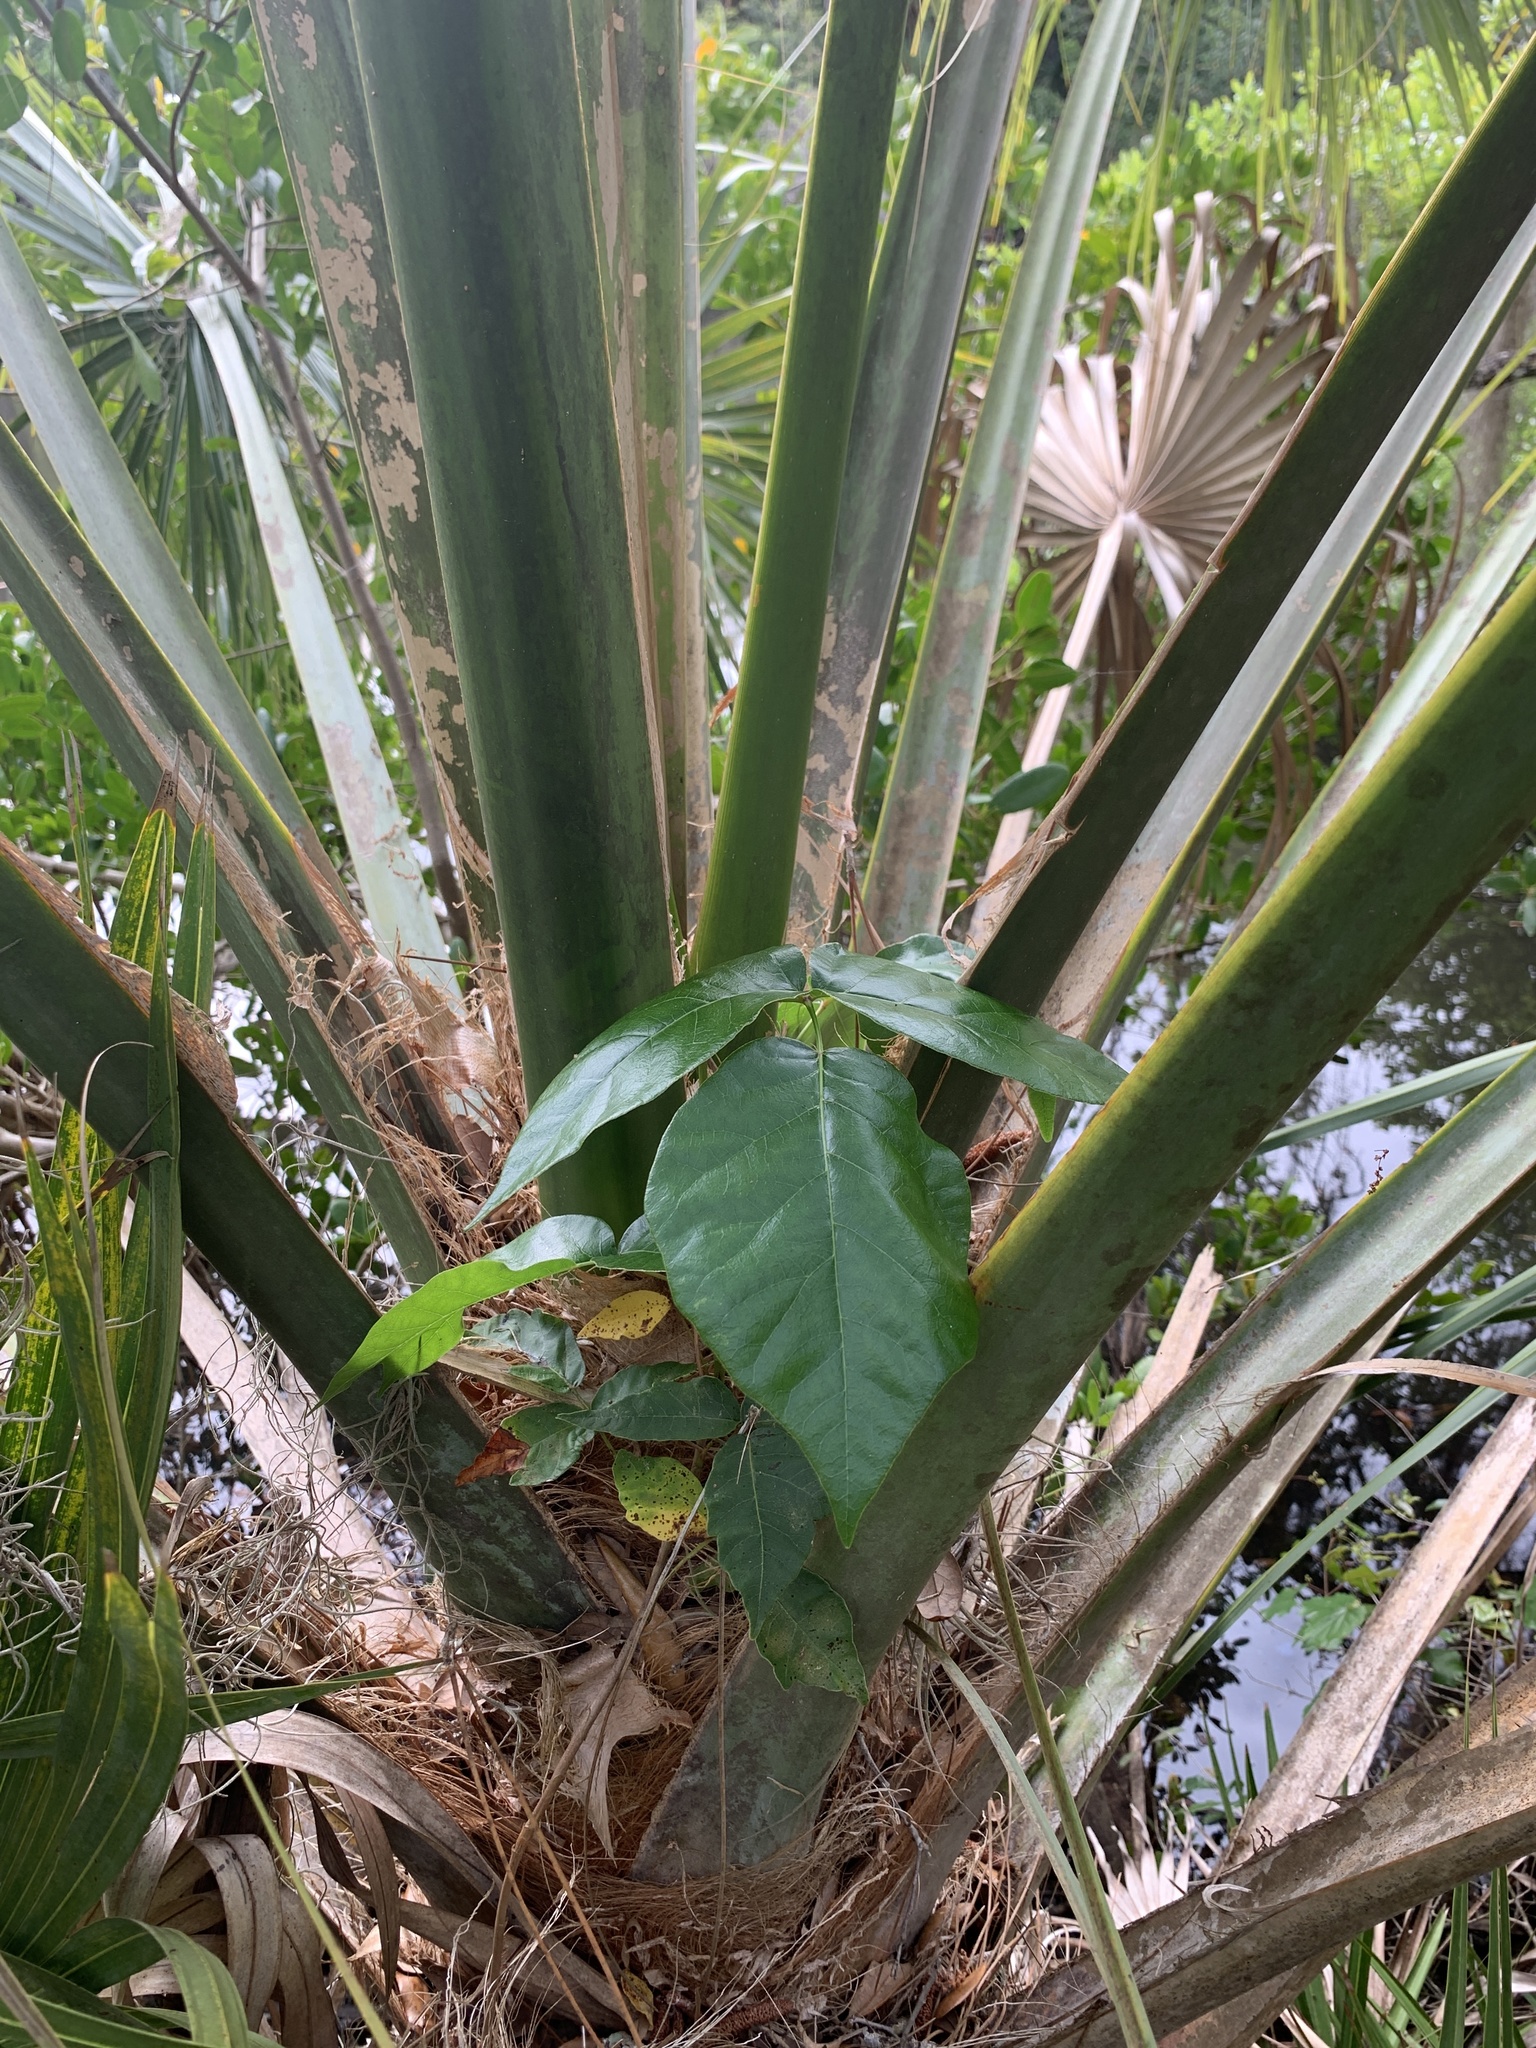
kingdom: Plantae
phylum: Tracheophyta
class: Magnoliopsida
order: Sapindales
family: Anacardiaceae
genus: Toxicodendron
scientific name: Toxicodendron radicans
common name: Poison ivy
